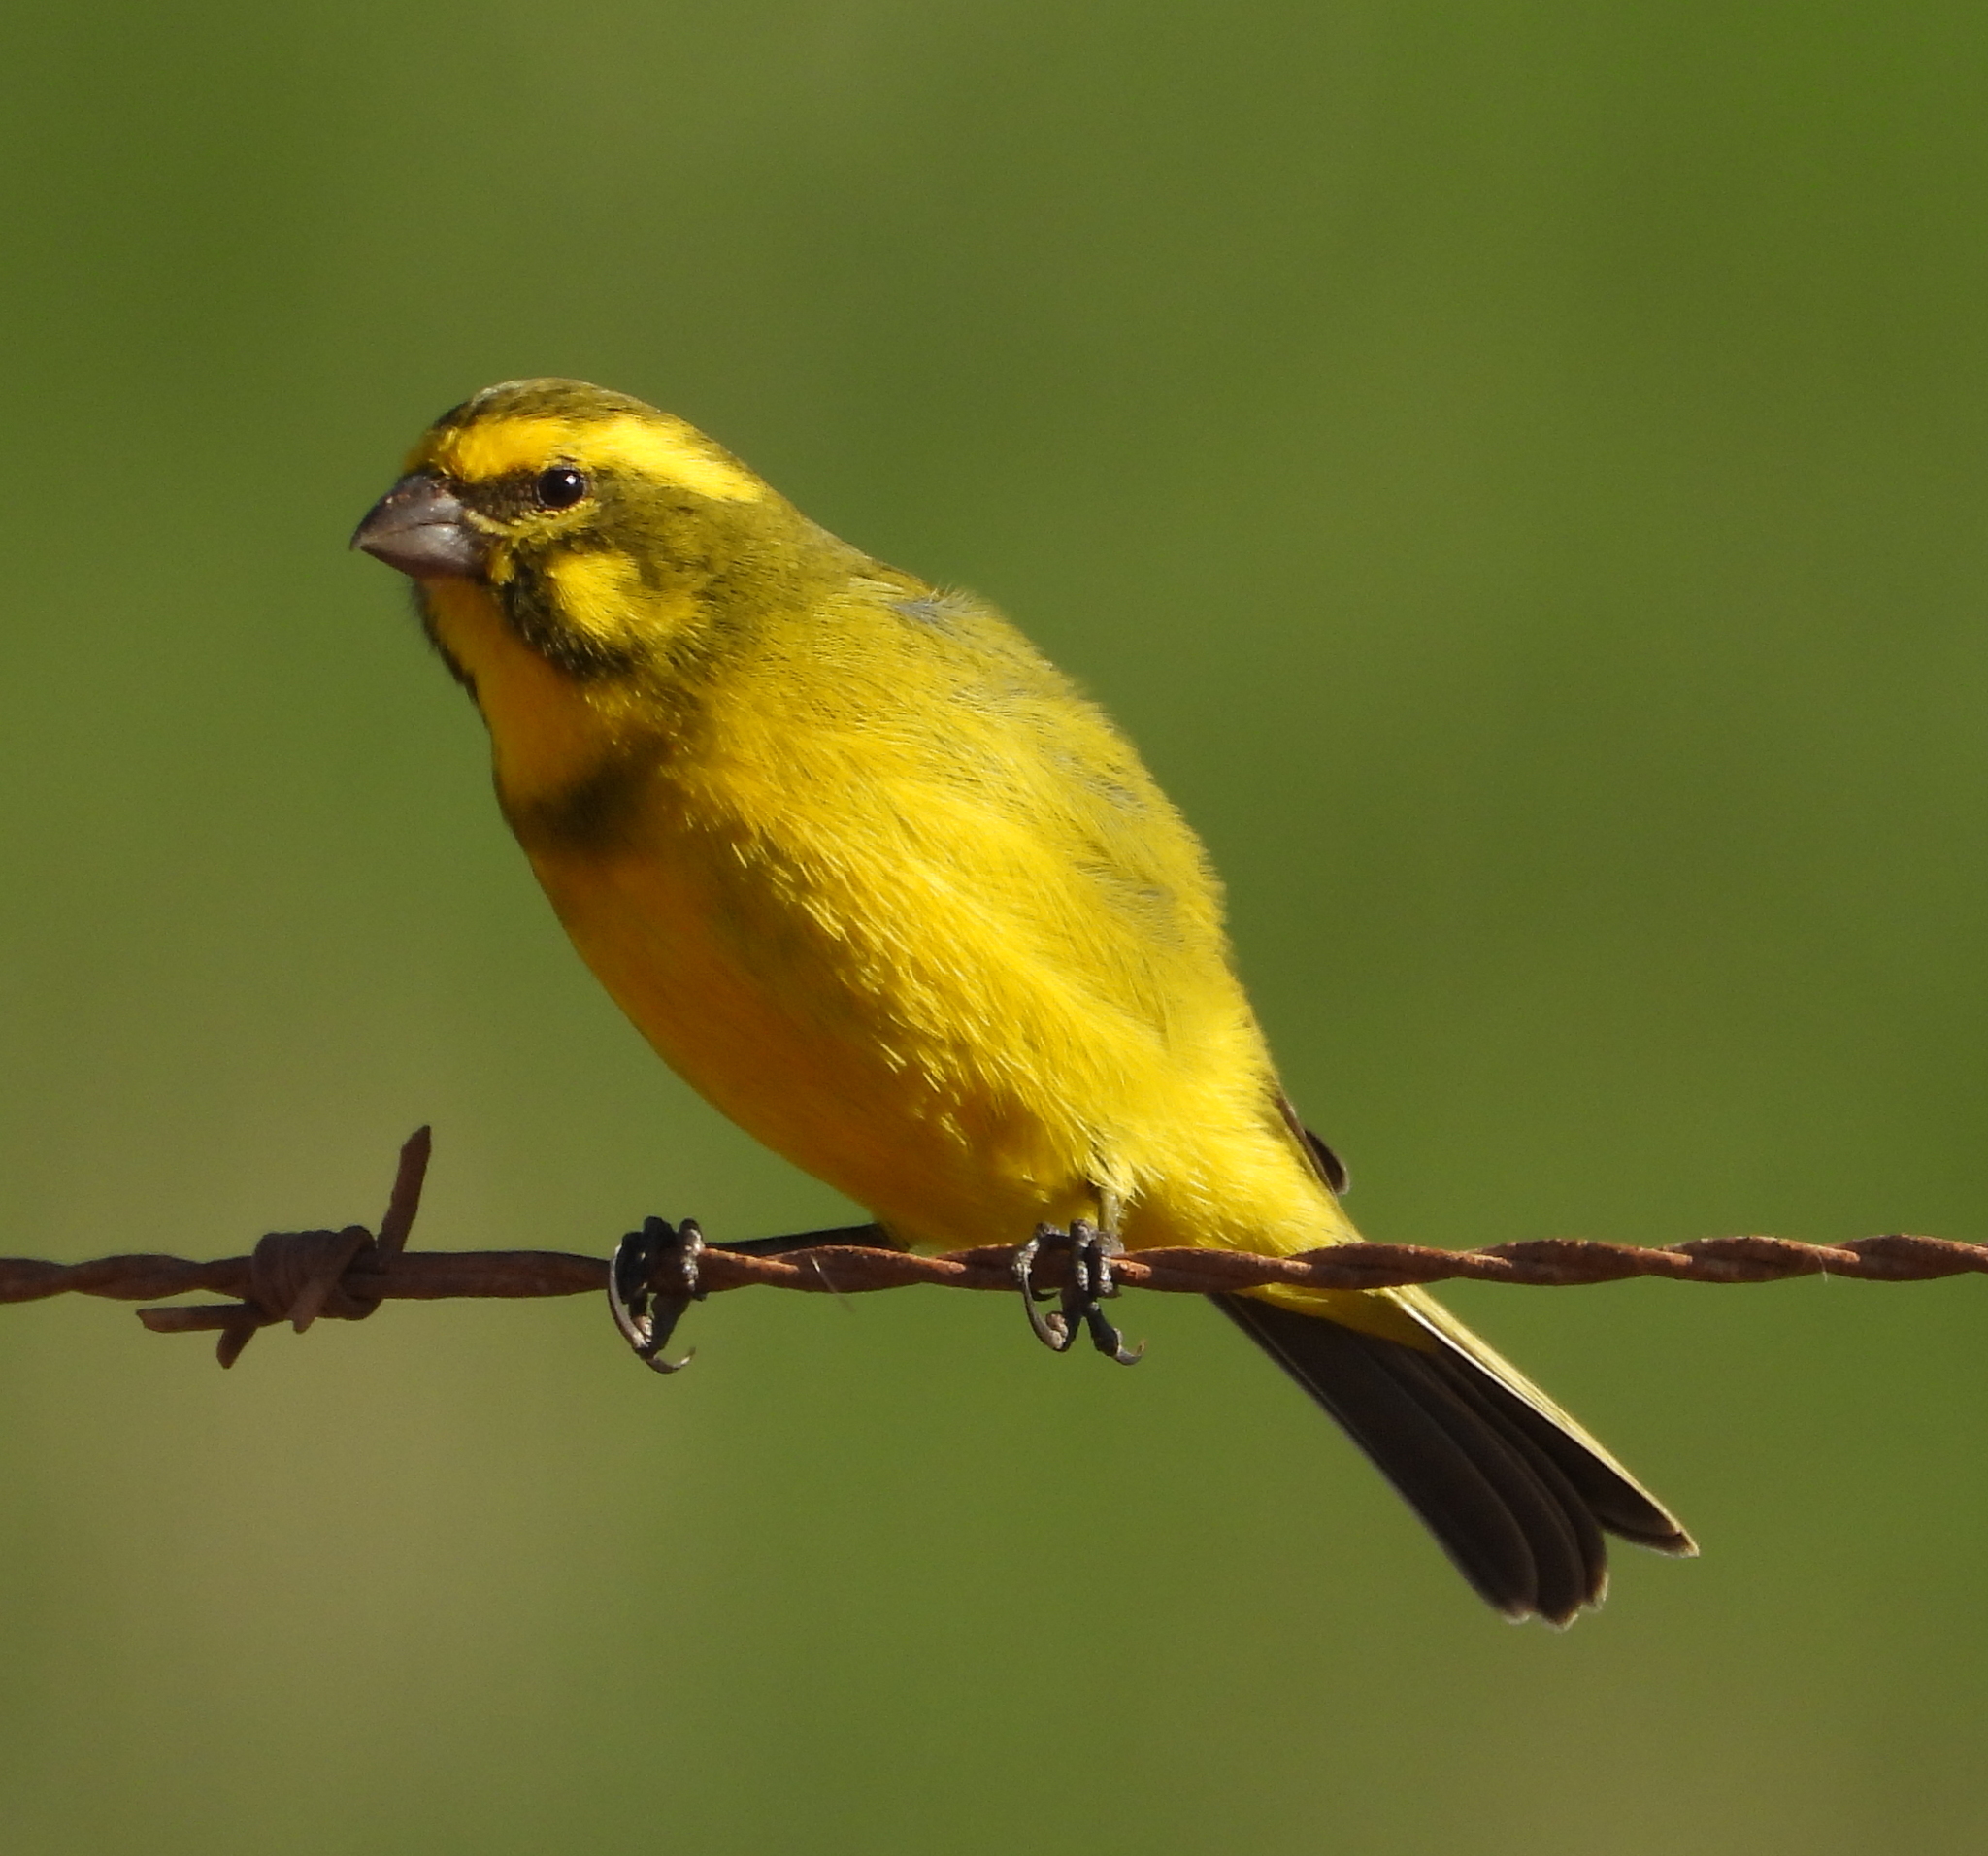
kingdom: Animalia
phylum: Chordata
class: Aves
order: Passeriformes
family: Fringillidae
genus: Crithagra
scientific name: Crithagra flaviventris
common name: Yellow canary
